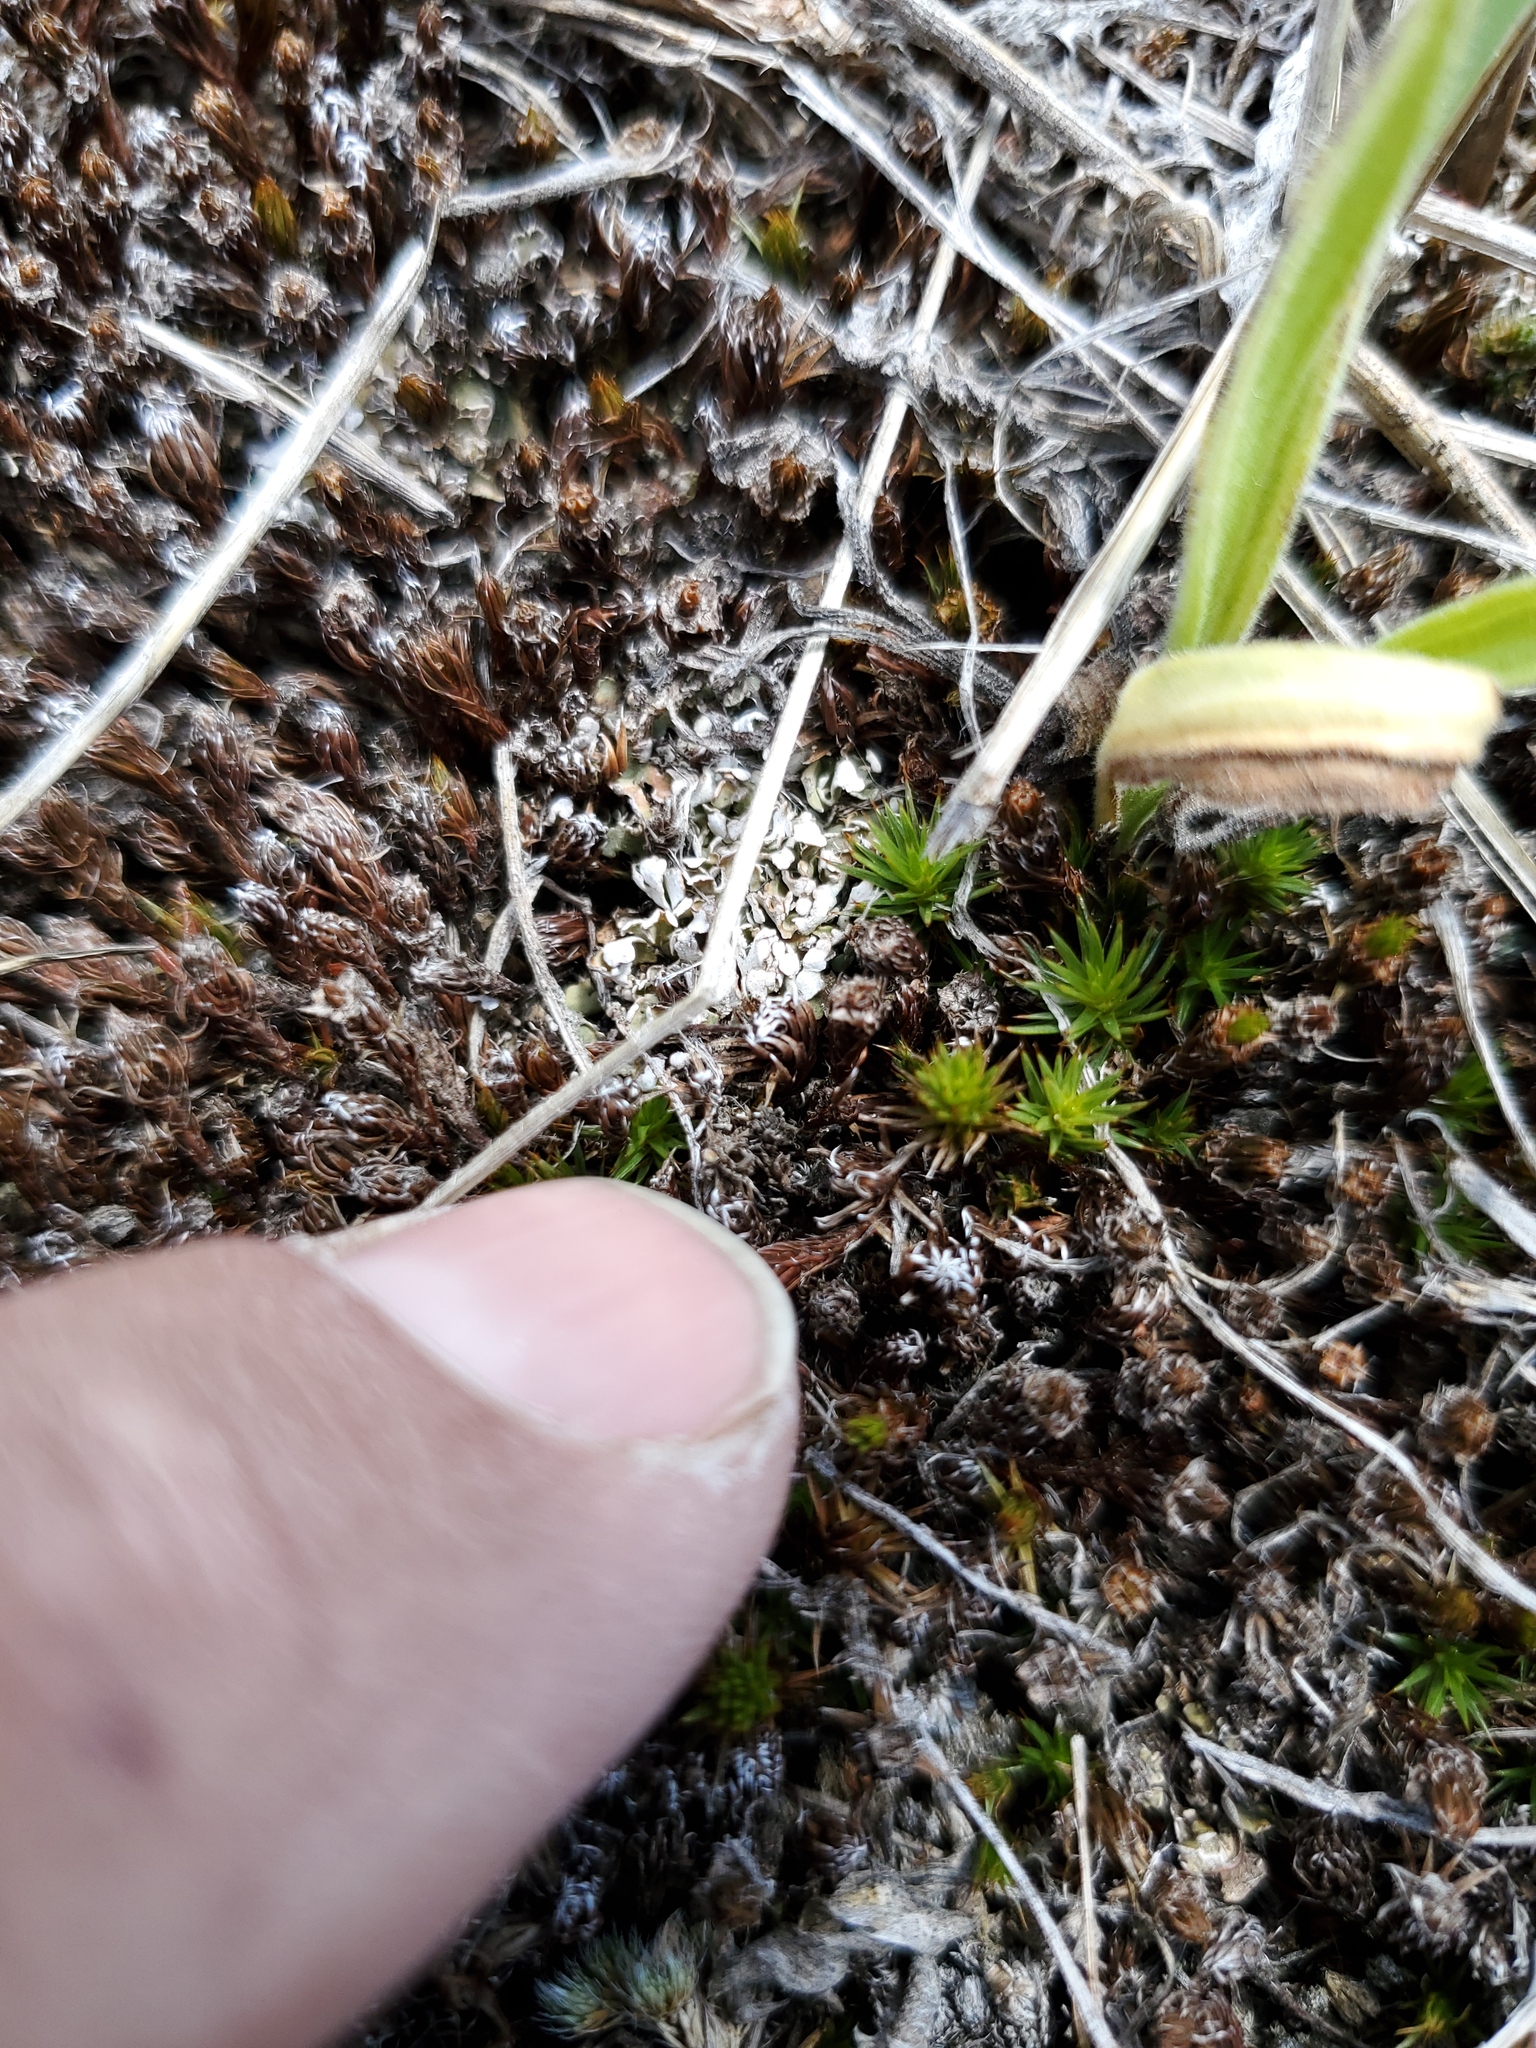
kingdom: Plantae
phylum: Tracheophyta
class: Lycopodiopsida
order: Selaginellales
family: Selaginellaceae
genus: Selaginella
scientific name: Selaginella densa
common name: Mountain spike-moss
